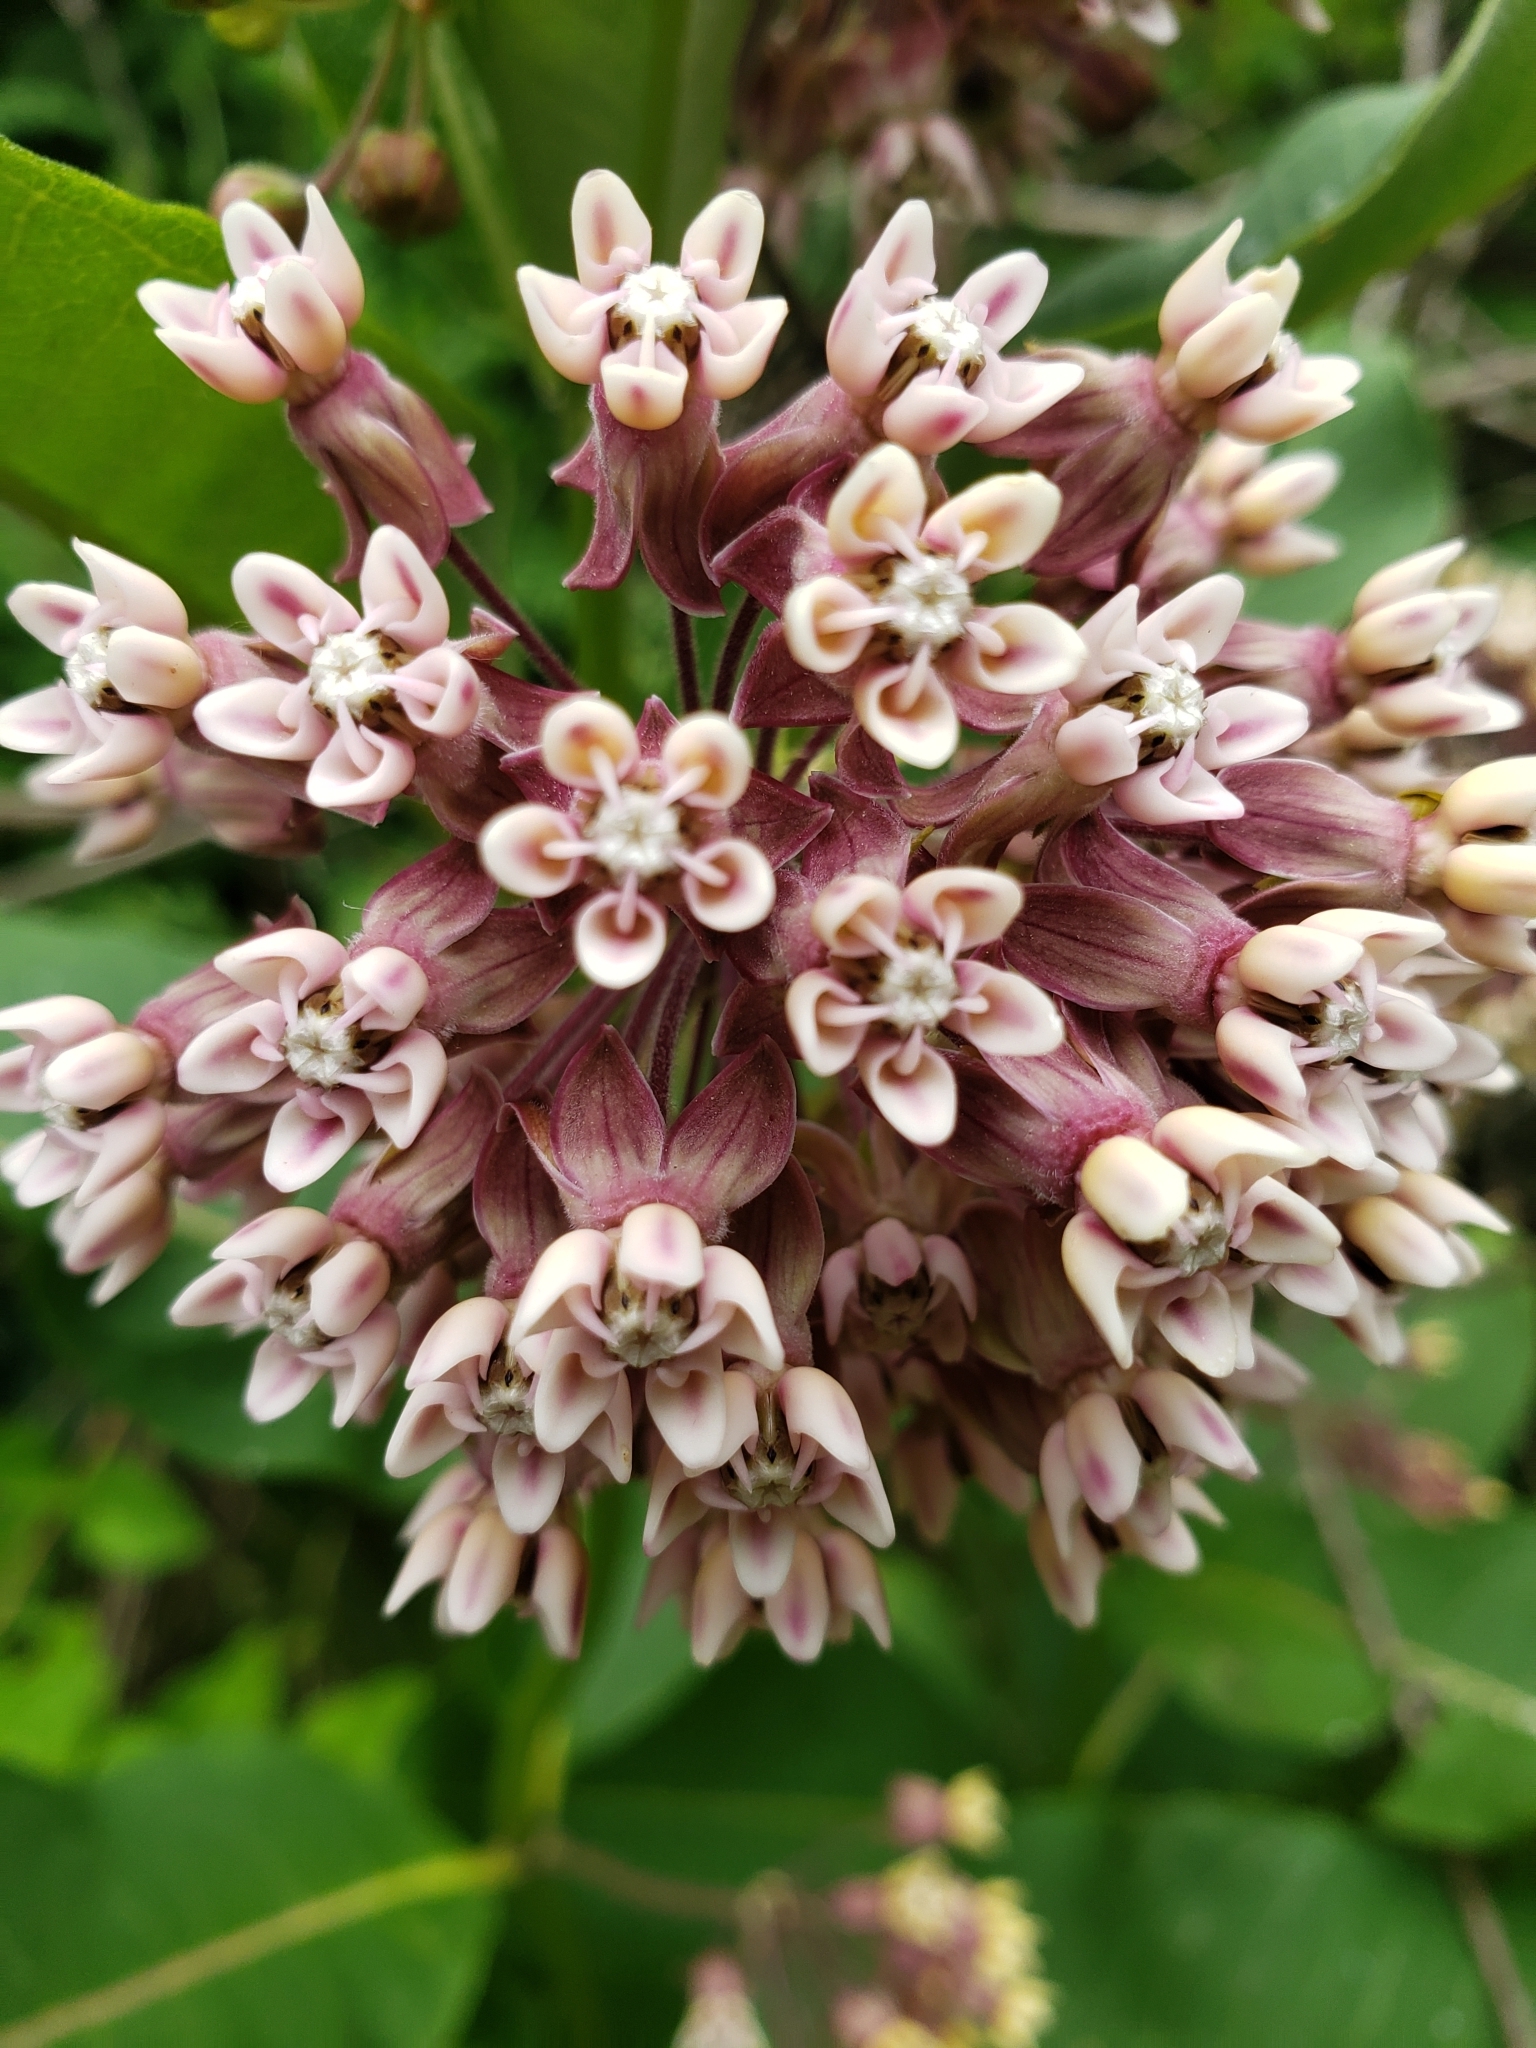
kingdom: Plantae
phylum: Tracheophyta
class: Magnoliopsida
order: Gentianales
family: Apocynaceae
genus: Asclepias
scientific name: Asclepias syriaca
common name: Common milkweed
